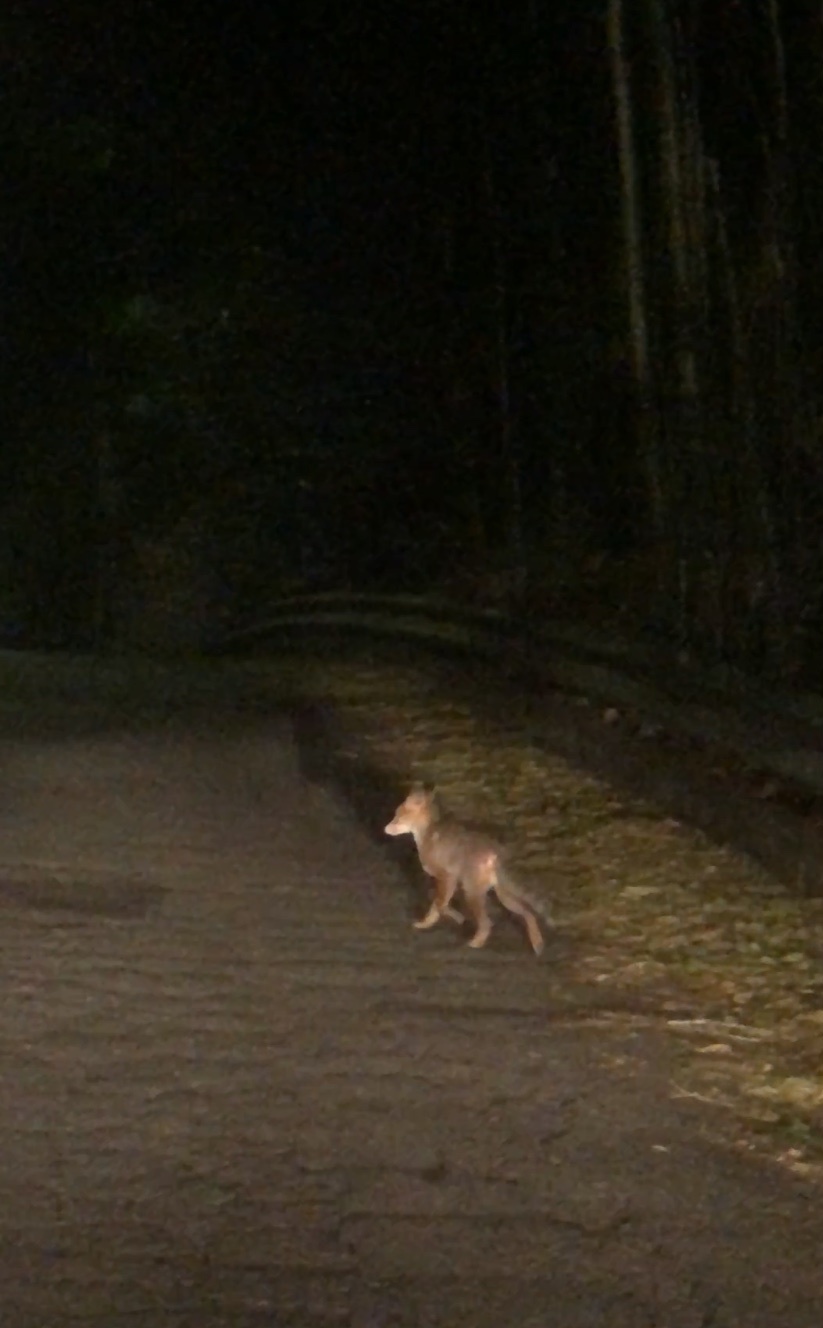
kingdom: Animalia
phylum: Chordata
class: Mammalia
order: Carnivora
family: Canidae
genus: Vulpes
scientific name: Vulpes vulpes
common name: Red fox
